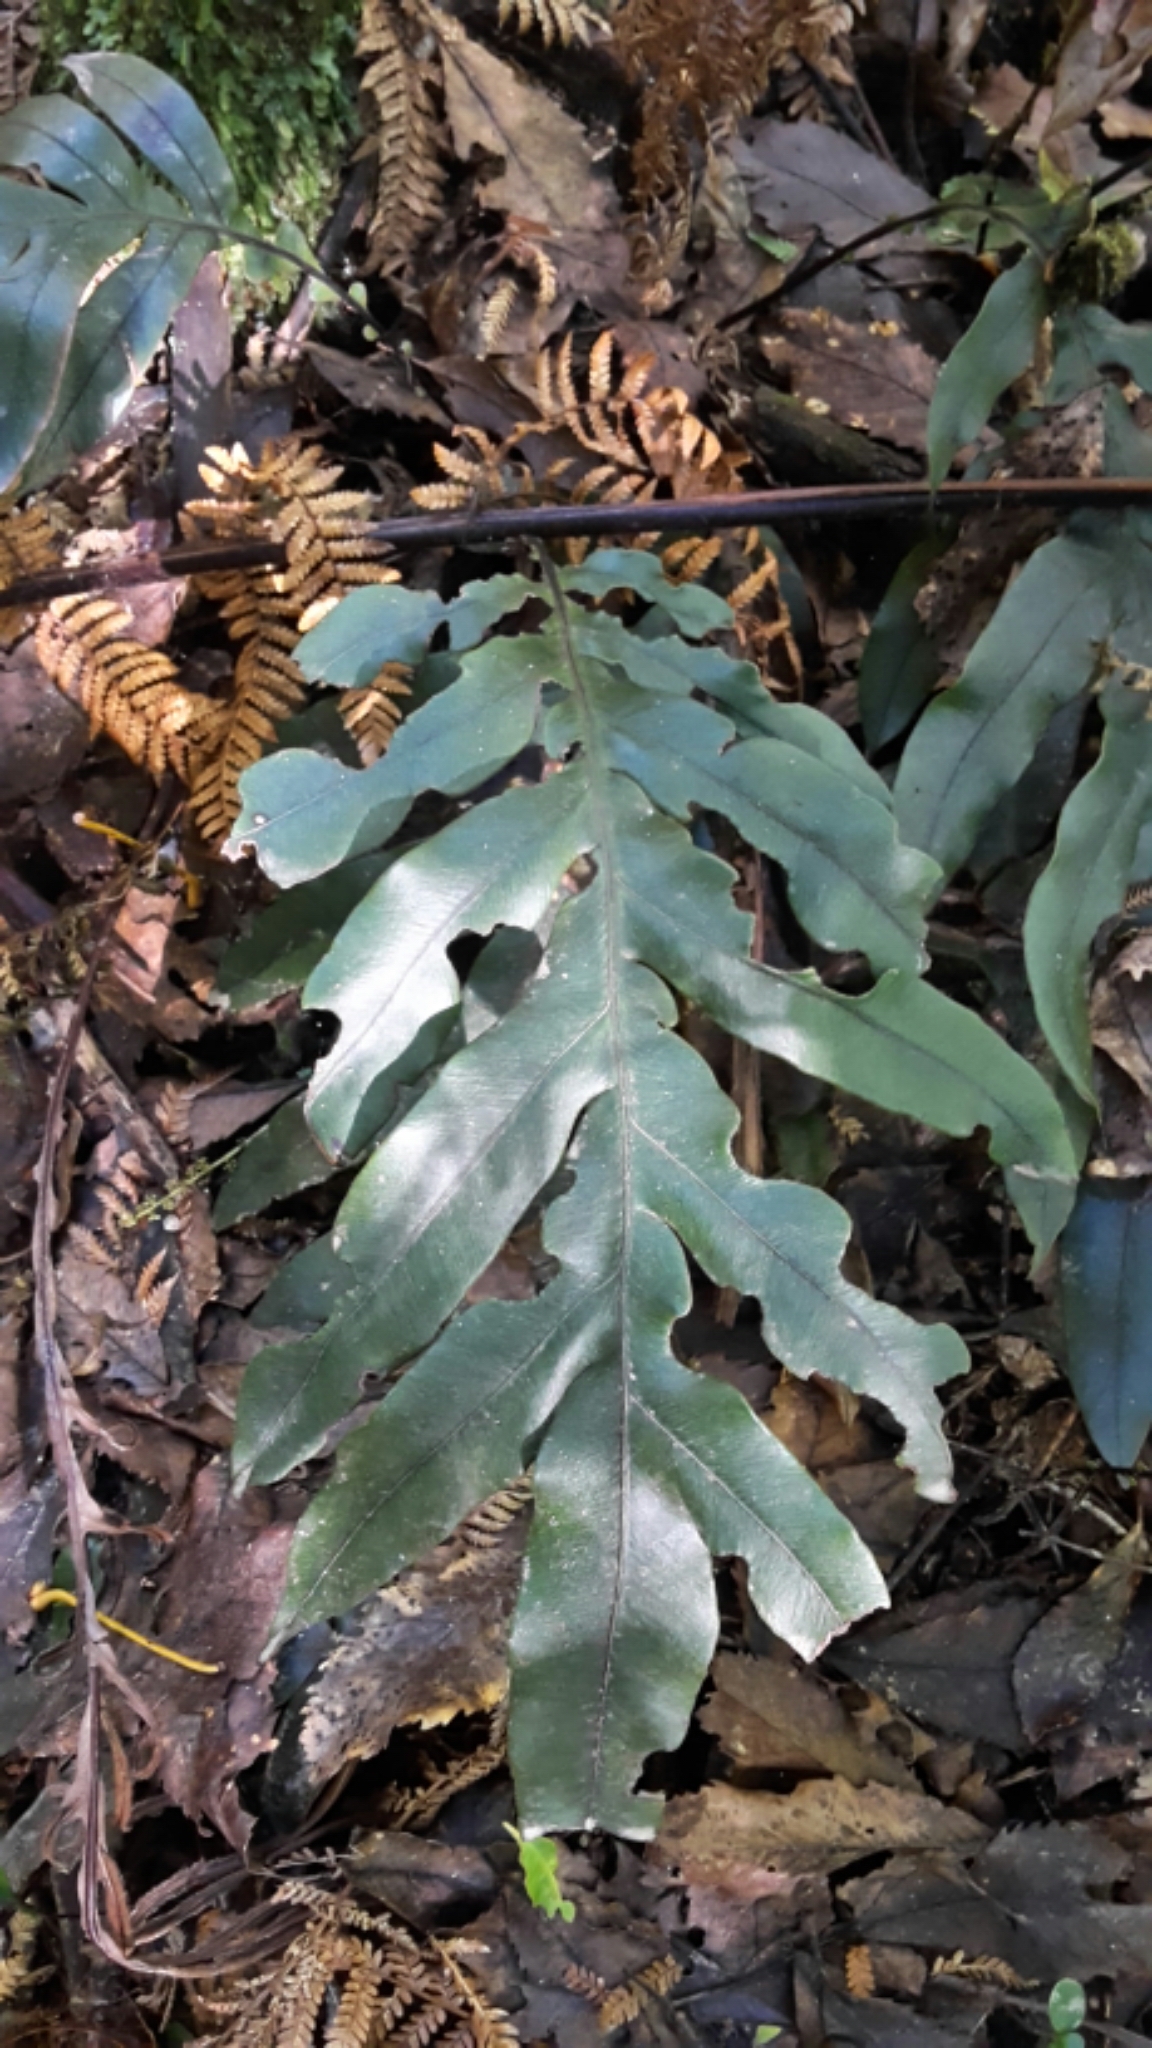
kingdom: Plantae
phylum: Tracheophyta
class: Polypodiopsida
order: Polypodiales
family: Blechnaceae
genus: Austroblechnum
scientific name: Austroblechnum colensoi
